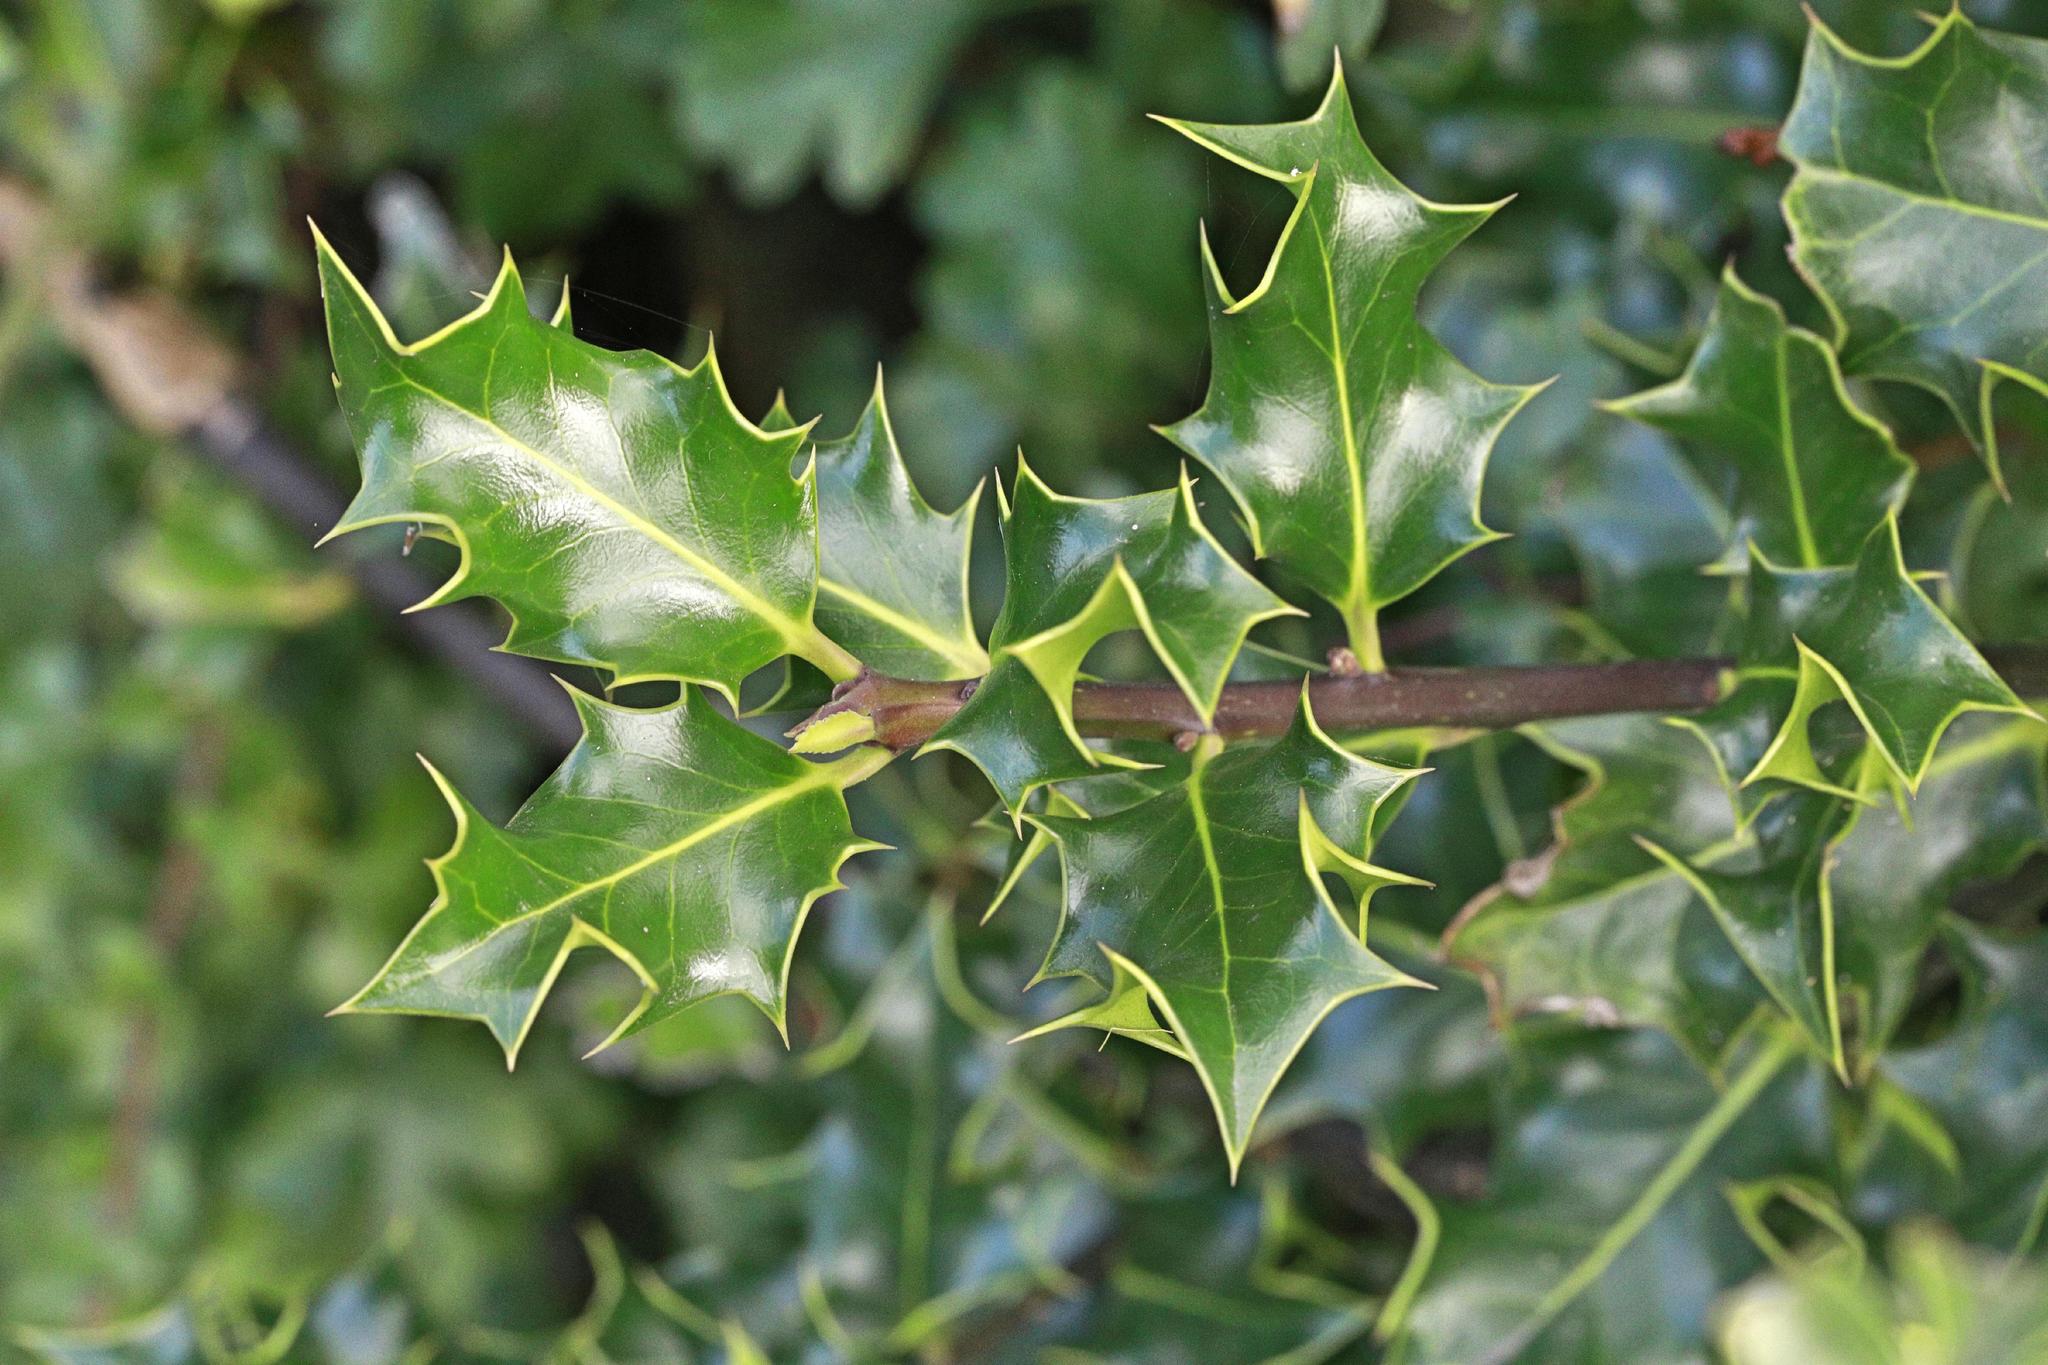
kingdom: Plantae
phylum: Tracheophyta
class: Magnoliopsida
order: Aquifoliales
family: Aquifoliaceae
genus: Ilex
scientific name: Ilex aquifolium
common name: English holly
